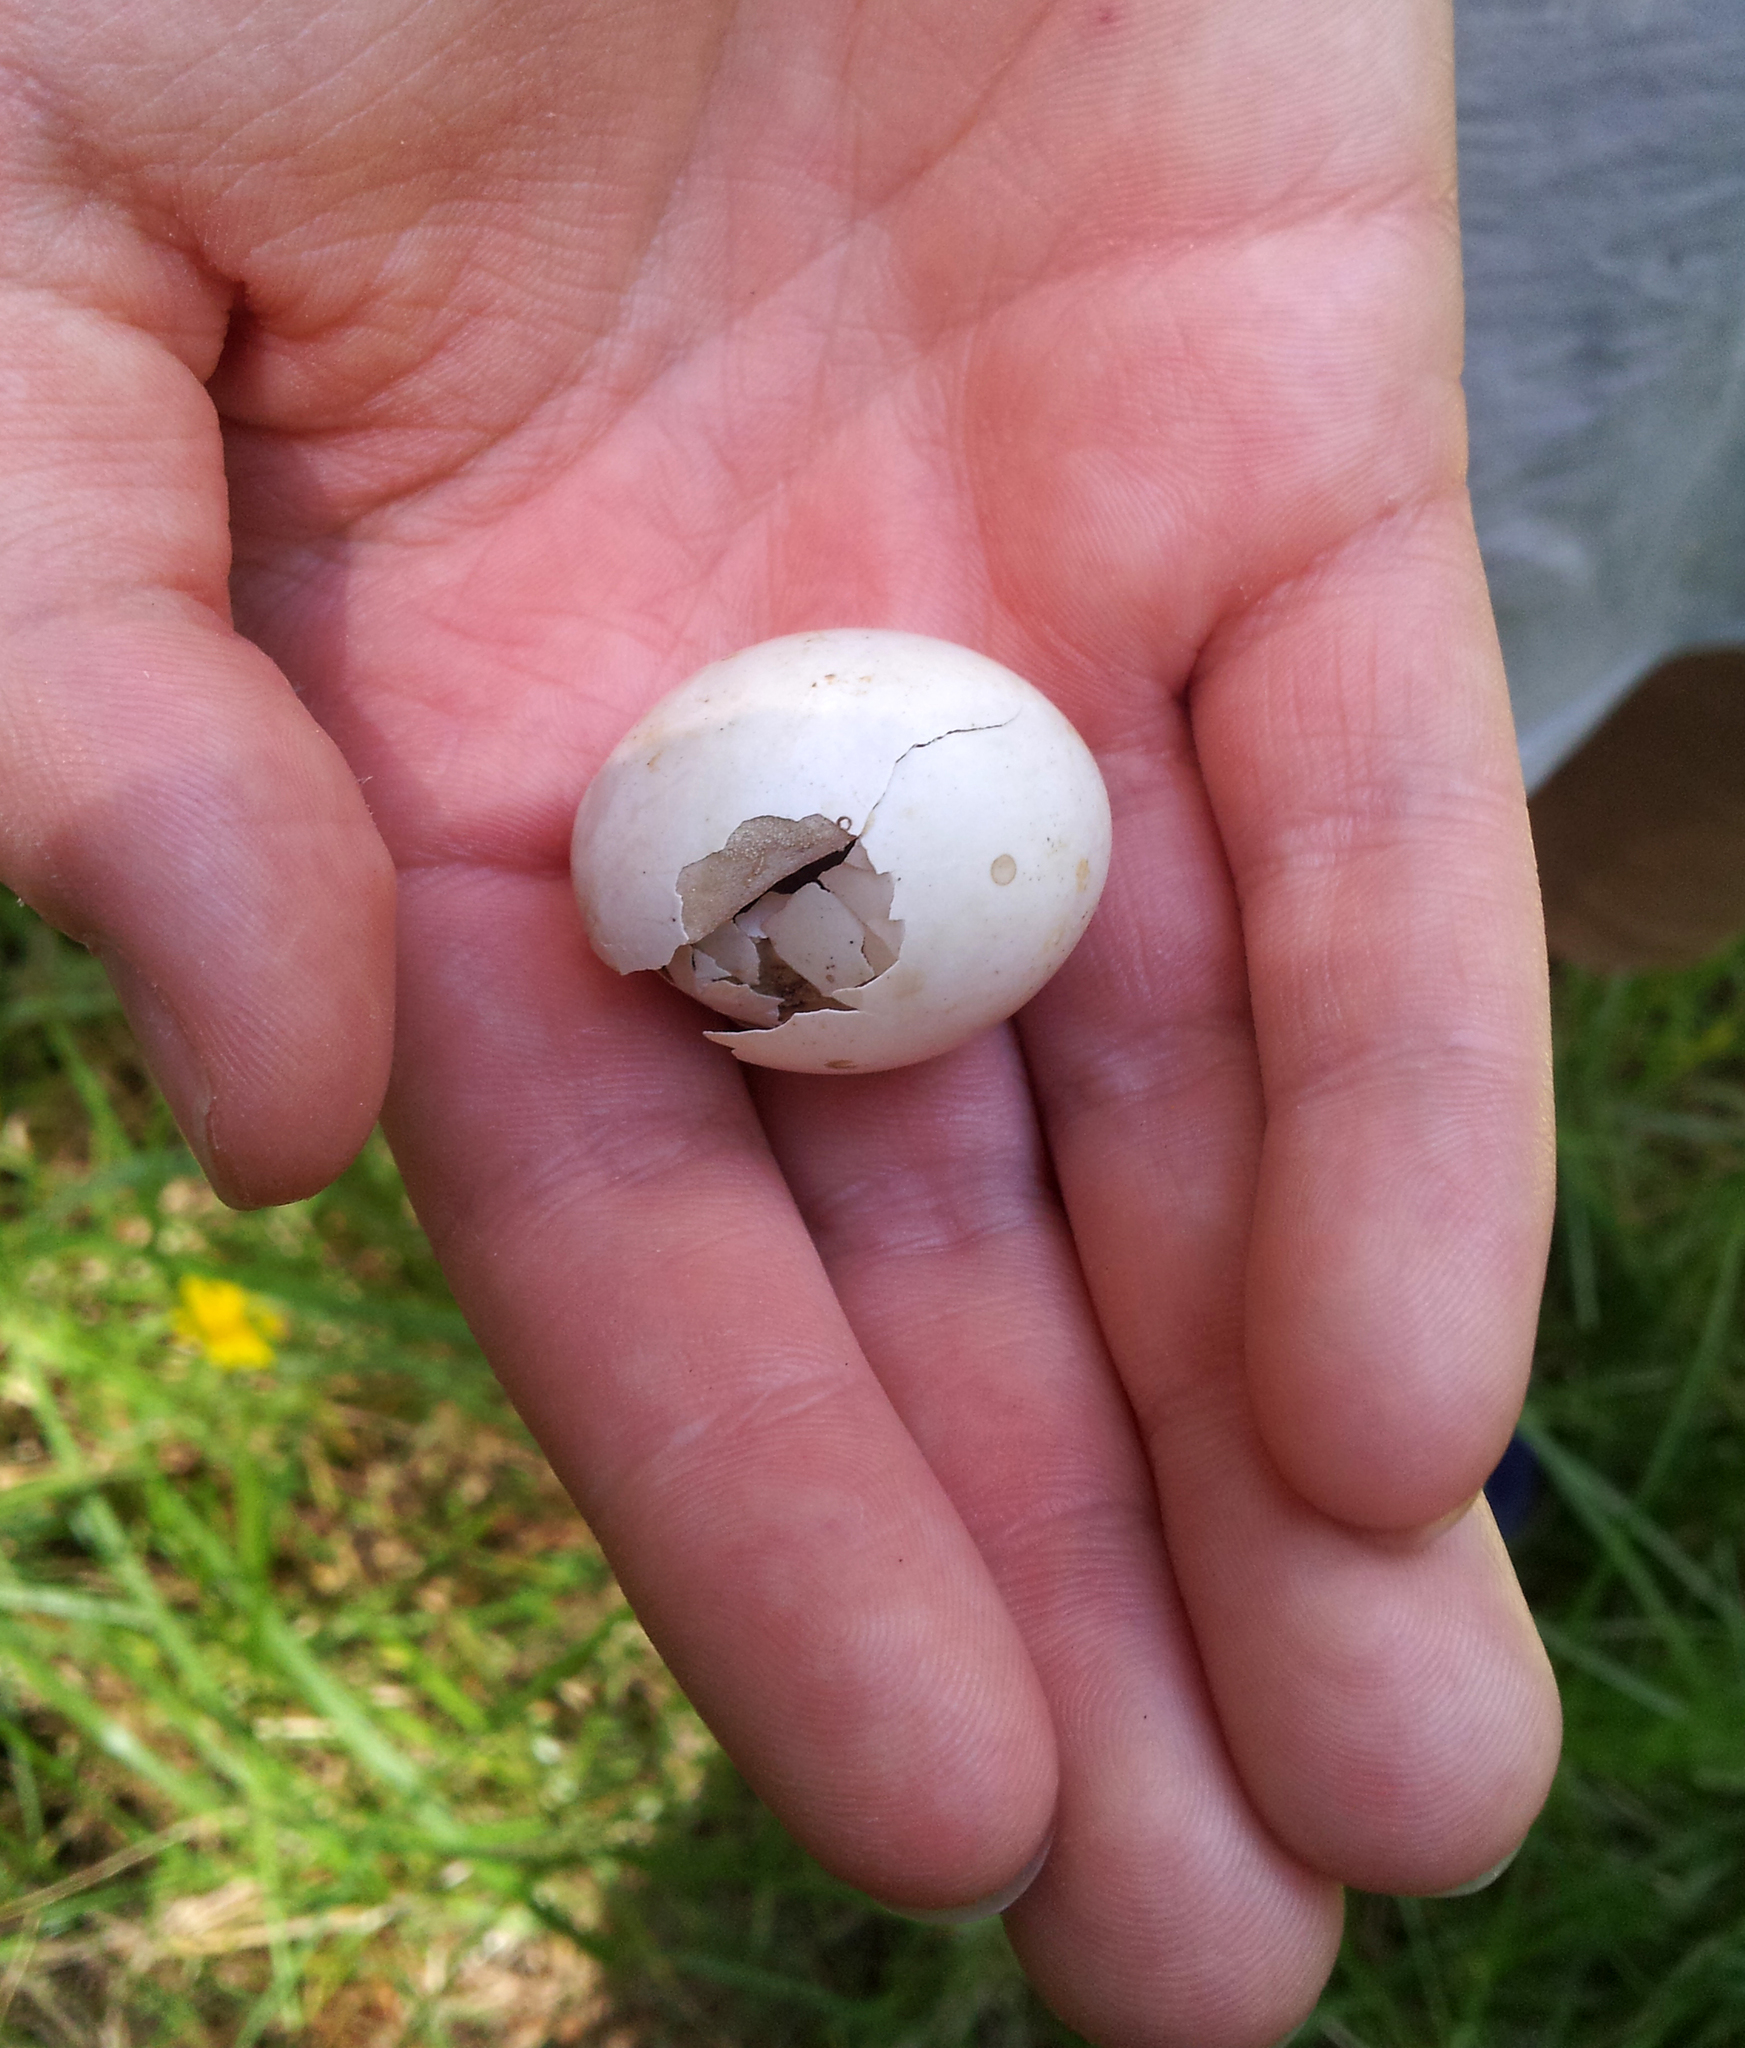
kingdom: Animalia
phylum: Chordata
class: Aves
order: Coraciiformes
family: Alcedinidae
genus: Todiramphus
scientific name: Todiramphus sanctus
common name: Sacred kingfisher
